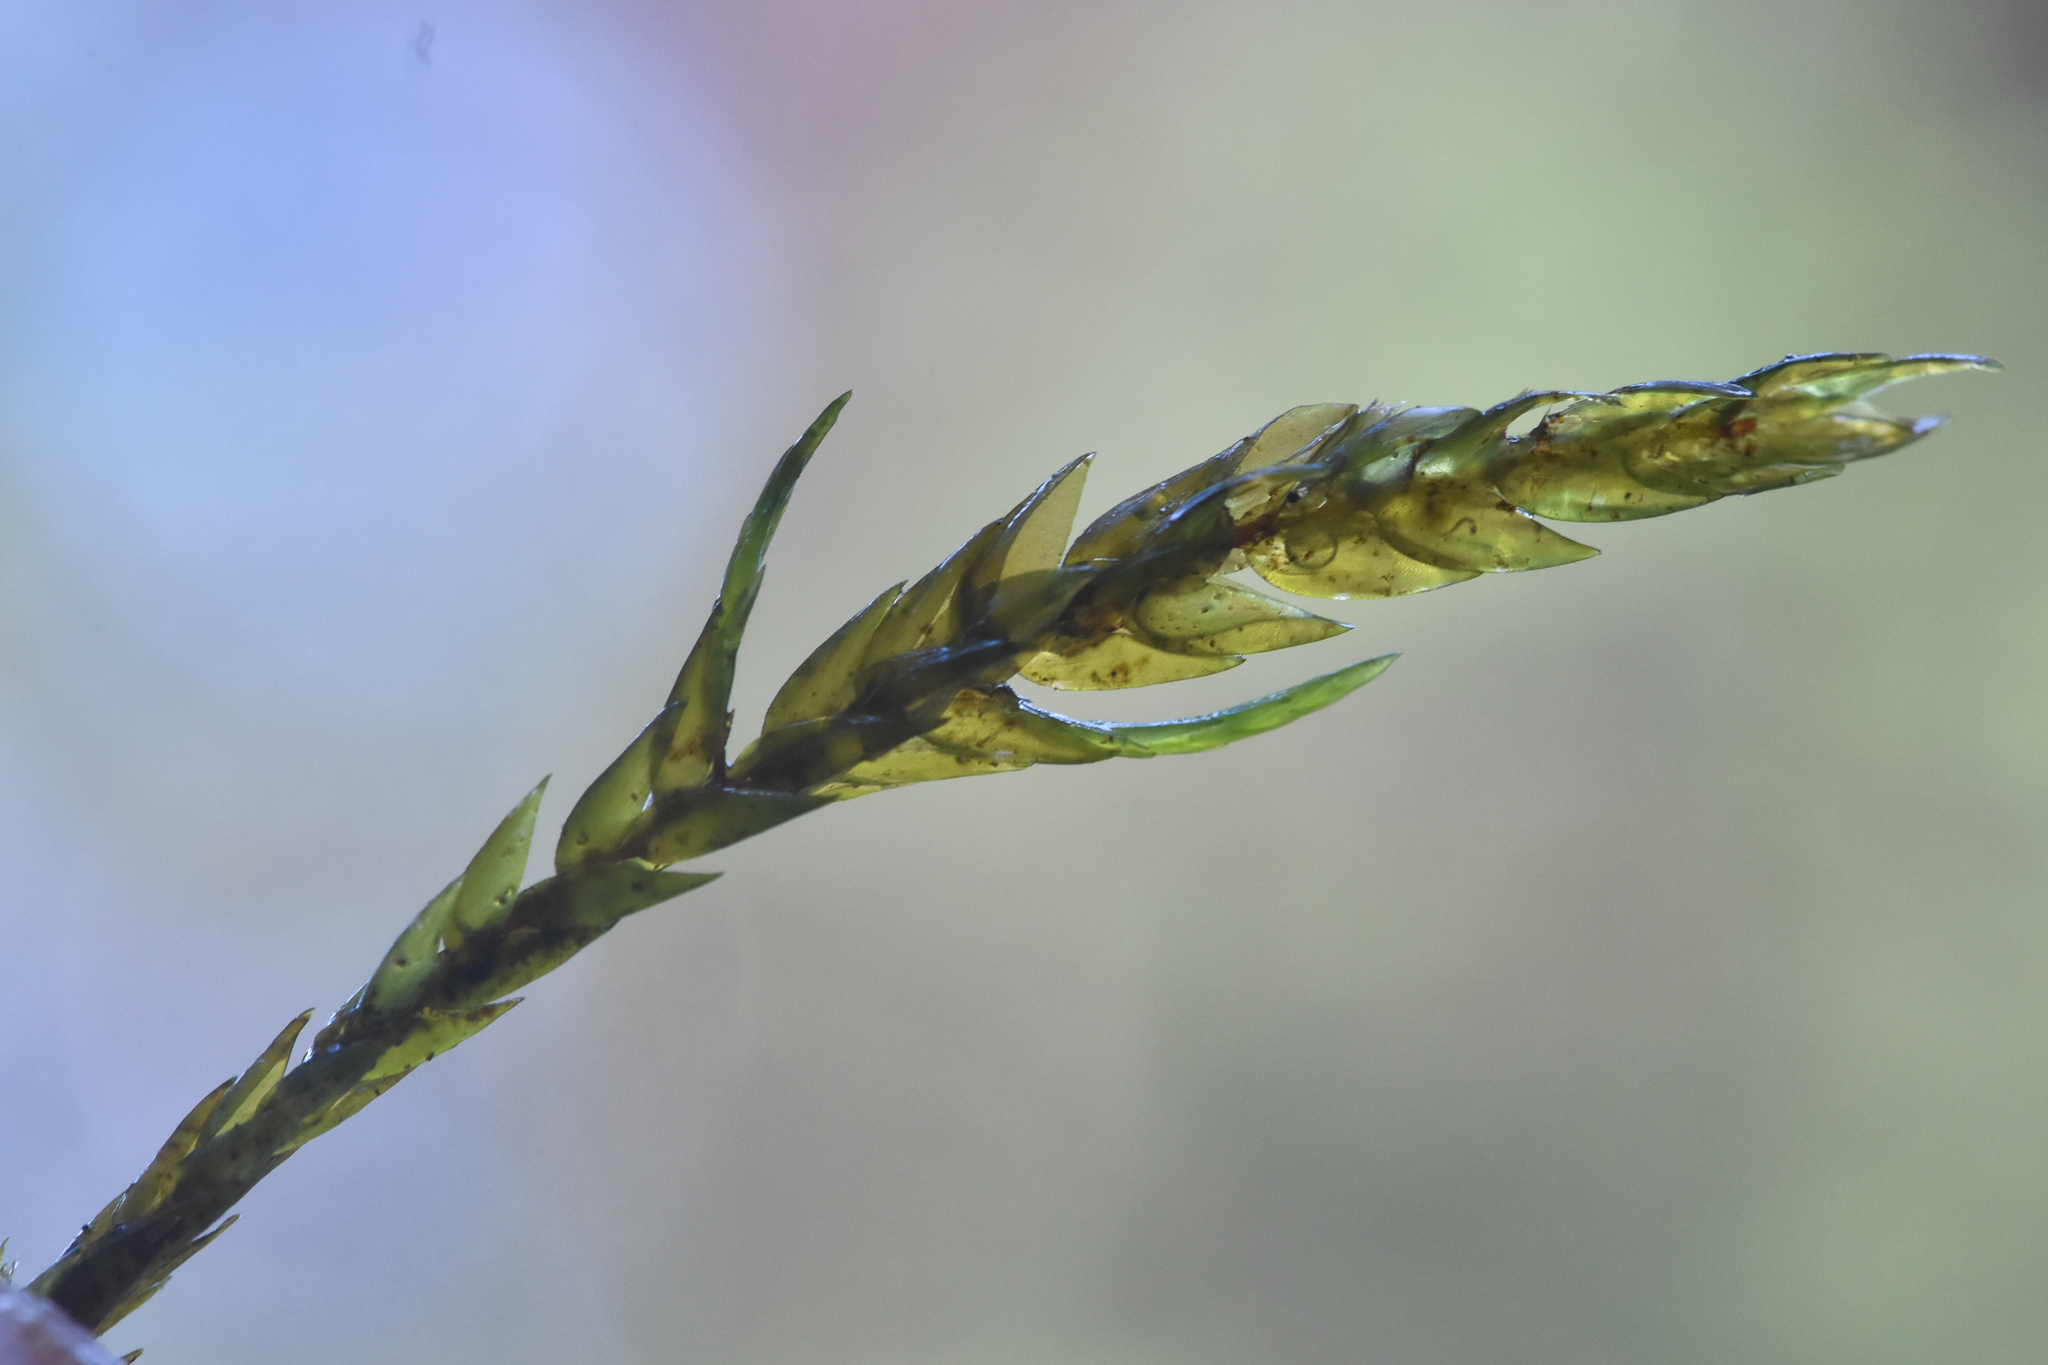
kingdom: Plantae
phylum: Bryophyta
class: Bryopsida
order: Hypnales
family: Fontinalaceae
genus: Fontinalis
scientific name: Fontinalis antipyretica
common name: Greater water-moss
